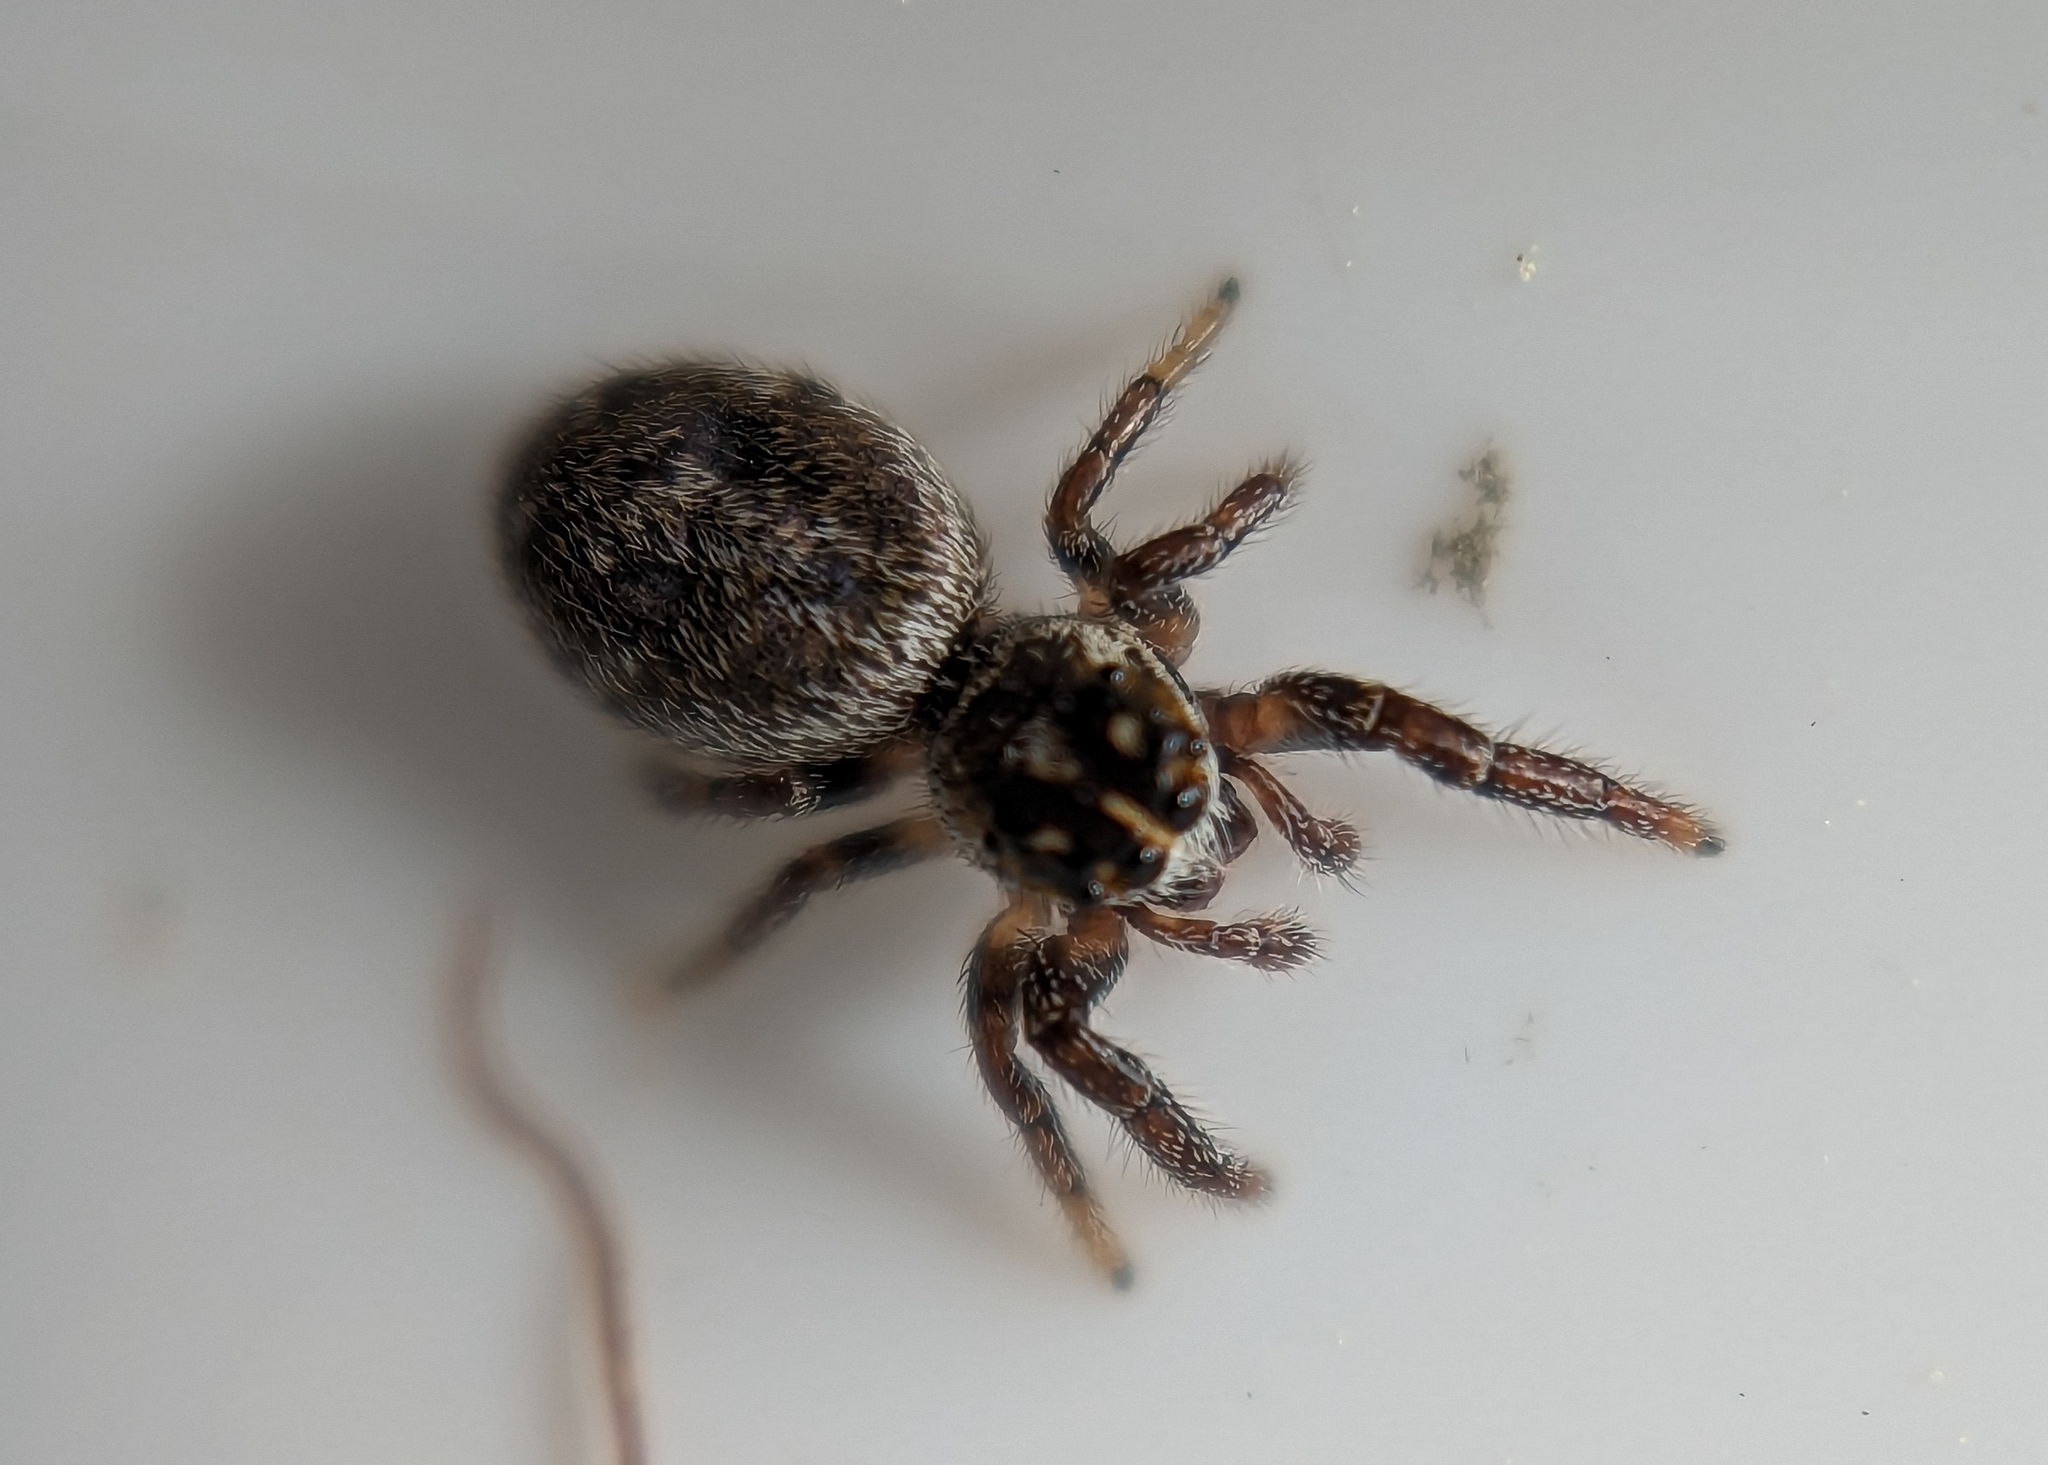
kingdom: Animalia
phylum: Arthropoda
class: Arachnida
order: Araneae
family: Salticidae
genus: Macaroeris
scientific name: Macaroeris nidicolens
